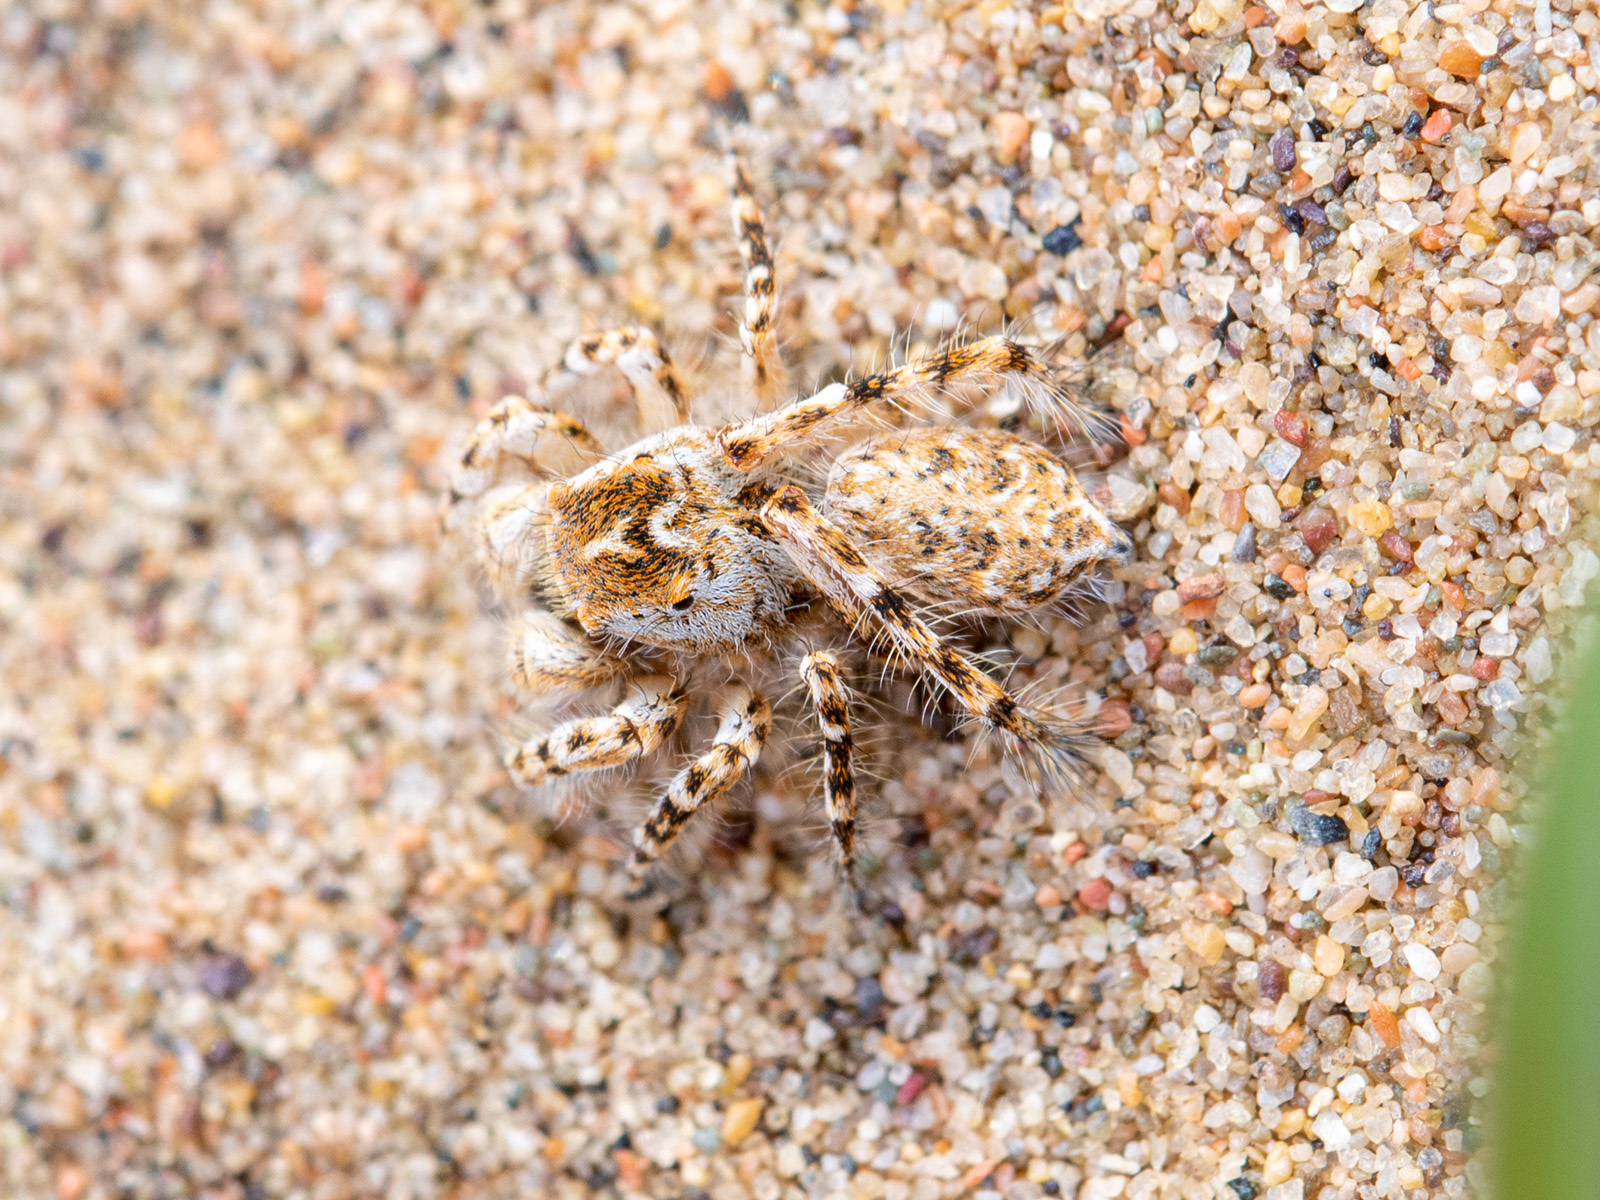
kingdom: Animalia
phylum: Arthropoda
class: Arachnida
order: Araneae
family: Salticidae
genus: Yllenus
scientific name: Yllenus turkestanicus
